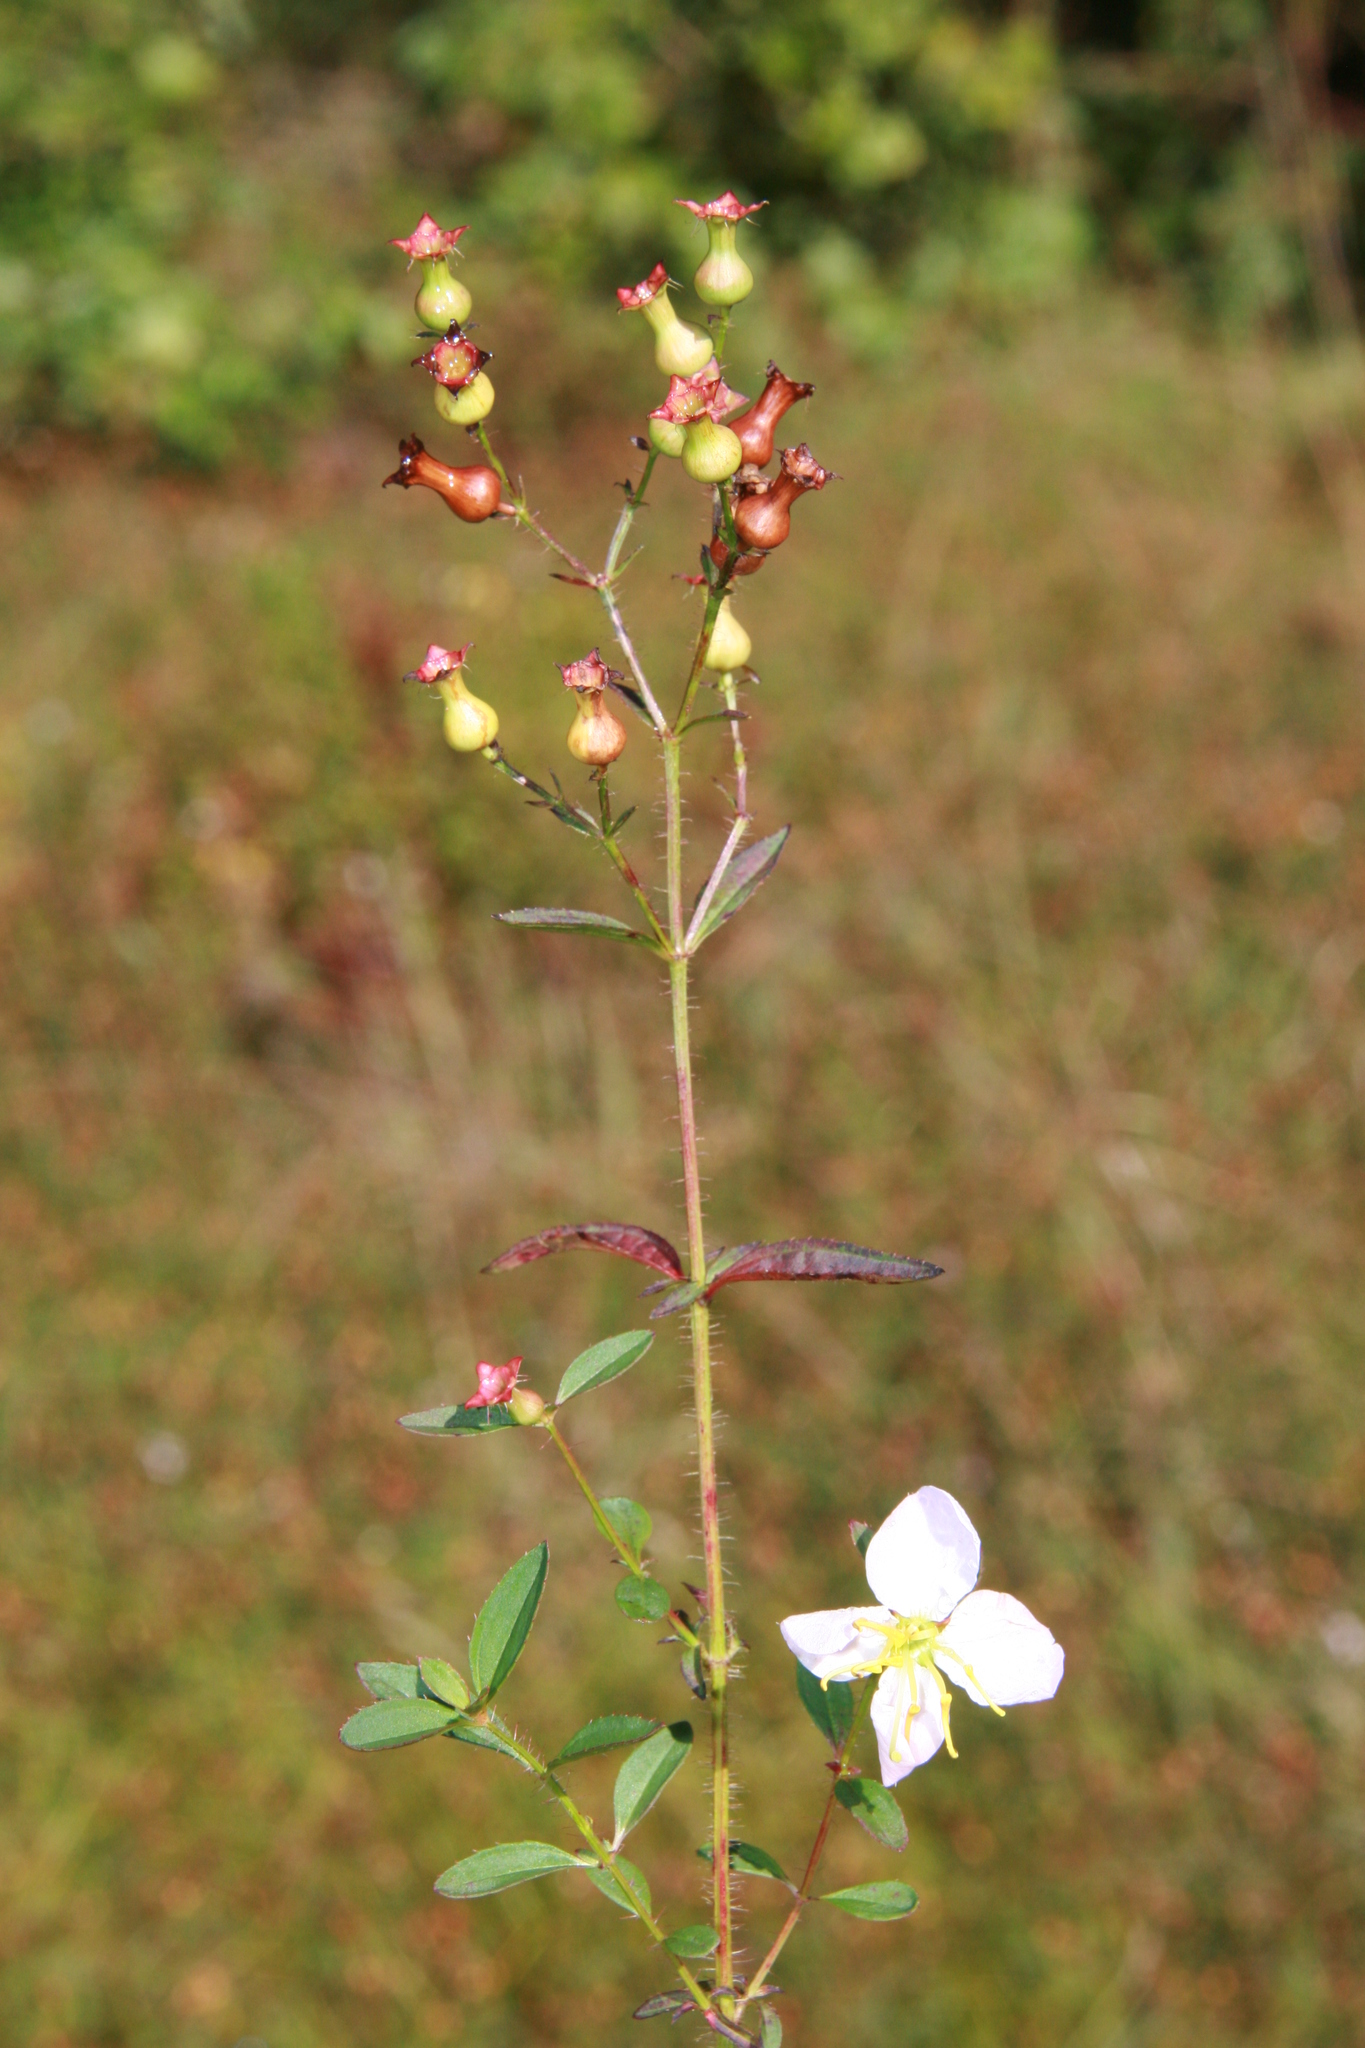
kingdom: Plantae
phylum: Tracheophyta
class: Magnoliopsida
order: Myrtales
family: Melastomataceae
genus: Rhexia
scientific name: Rhexia mariana
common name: Dull meadow-pitcher
